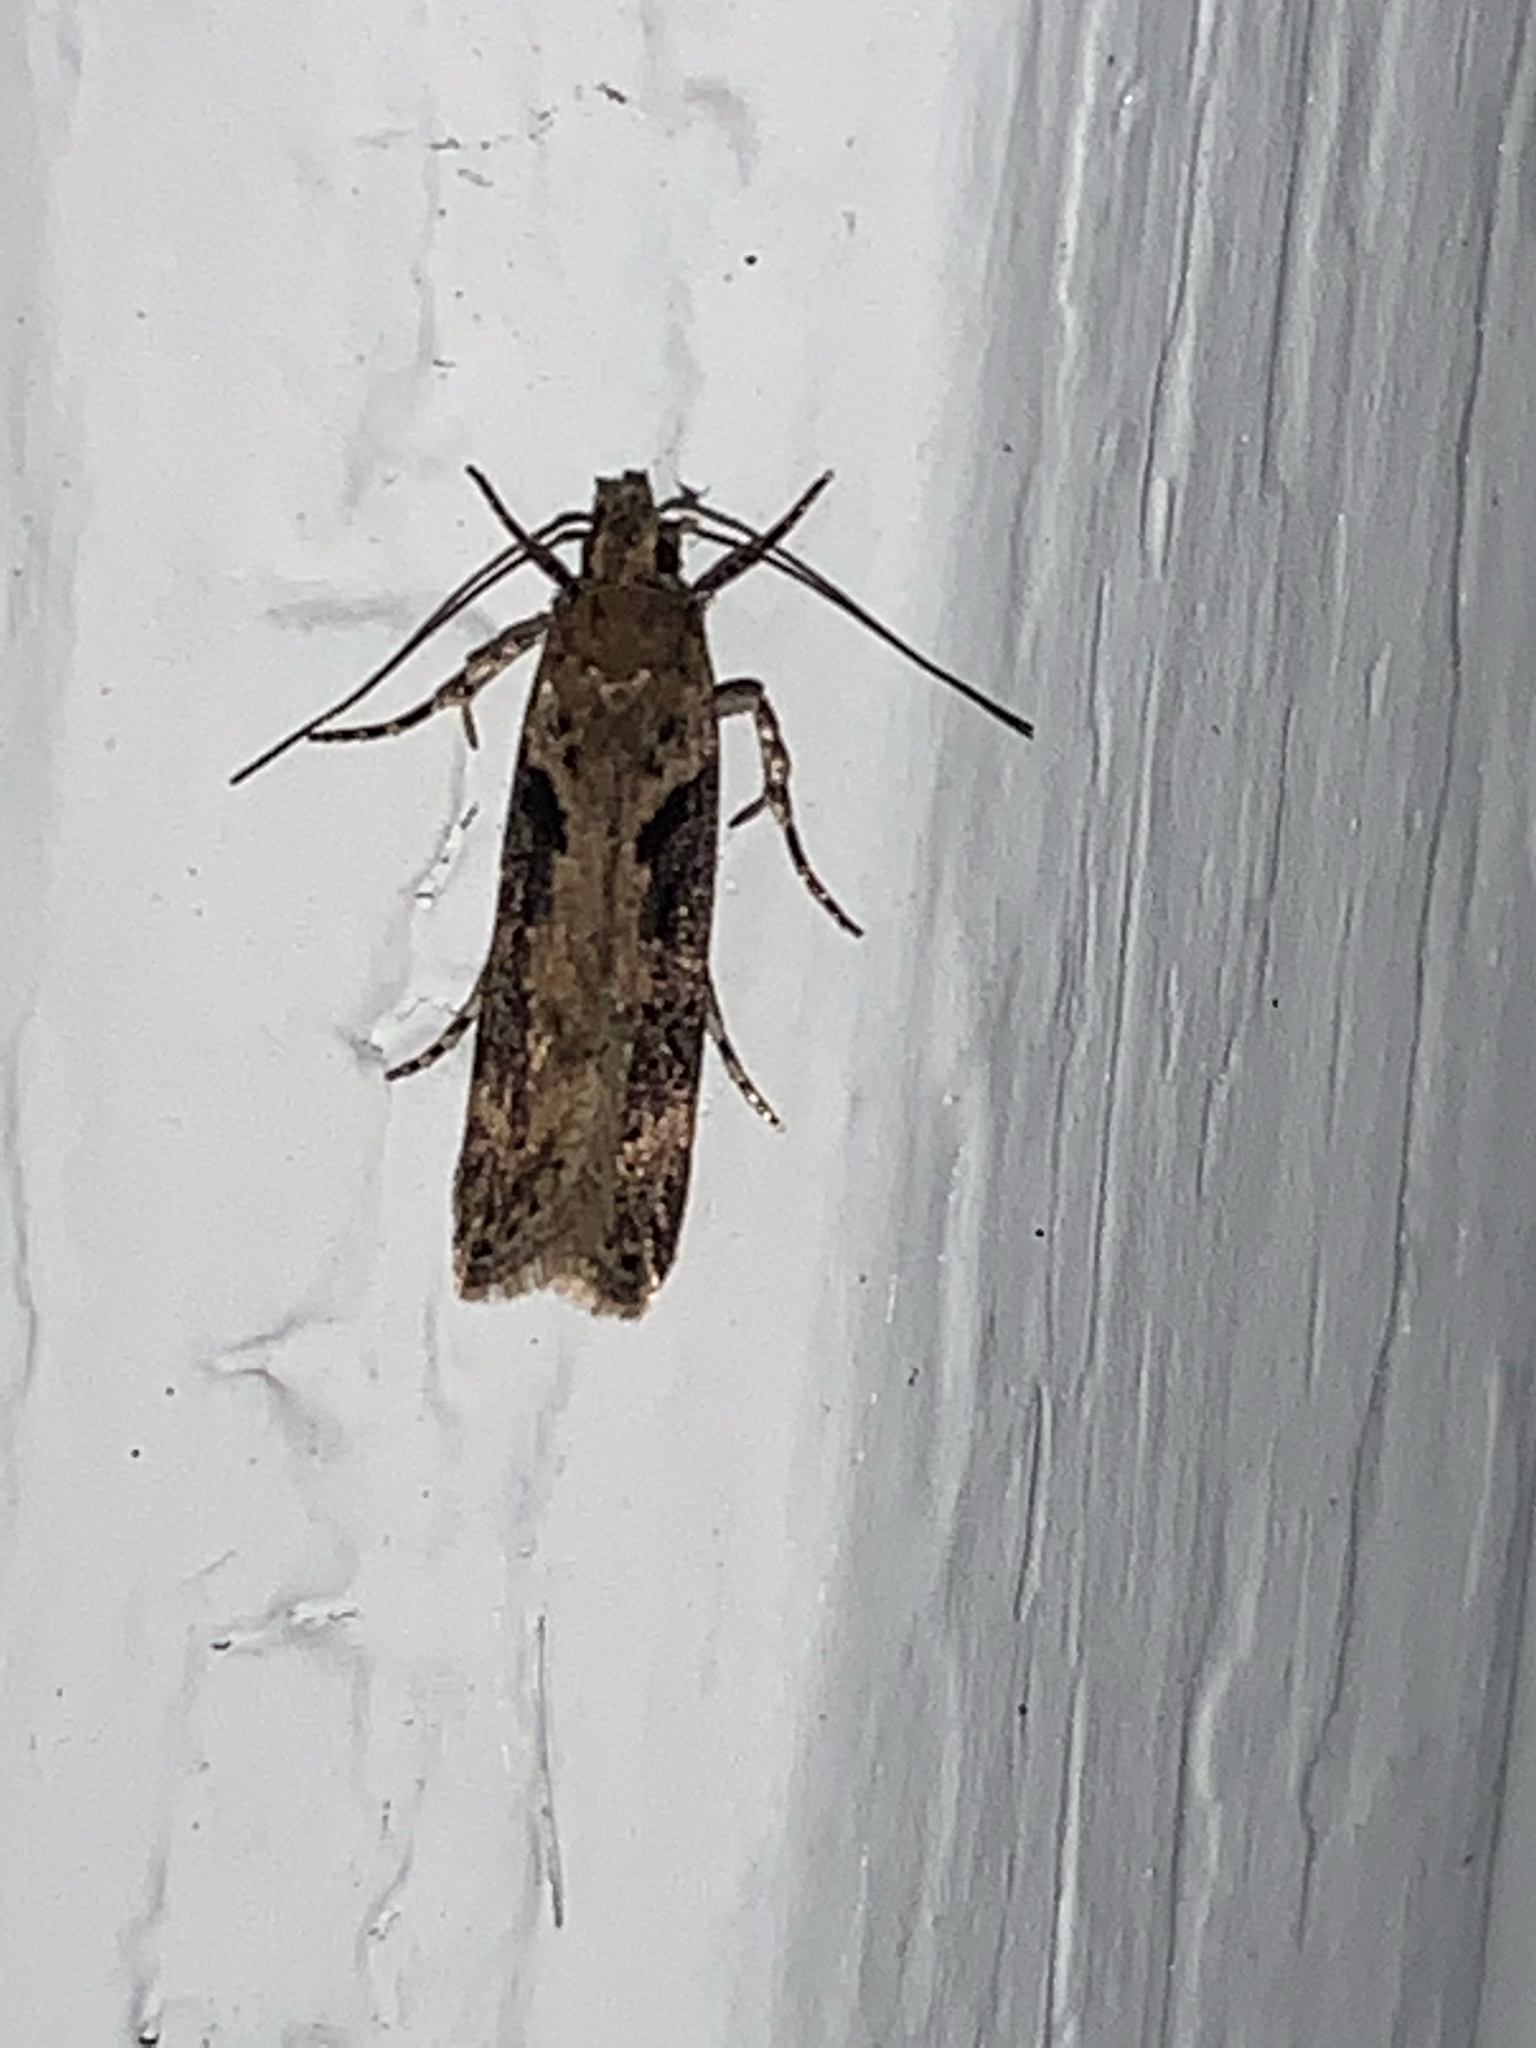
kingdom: Animalia
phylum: Arthropoda
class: Insecta
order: Lepidoptera
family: Gelechiidae
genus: Chionodes
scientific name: Chionodes mediofuscella
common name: Black-smudged chionodes moth
